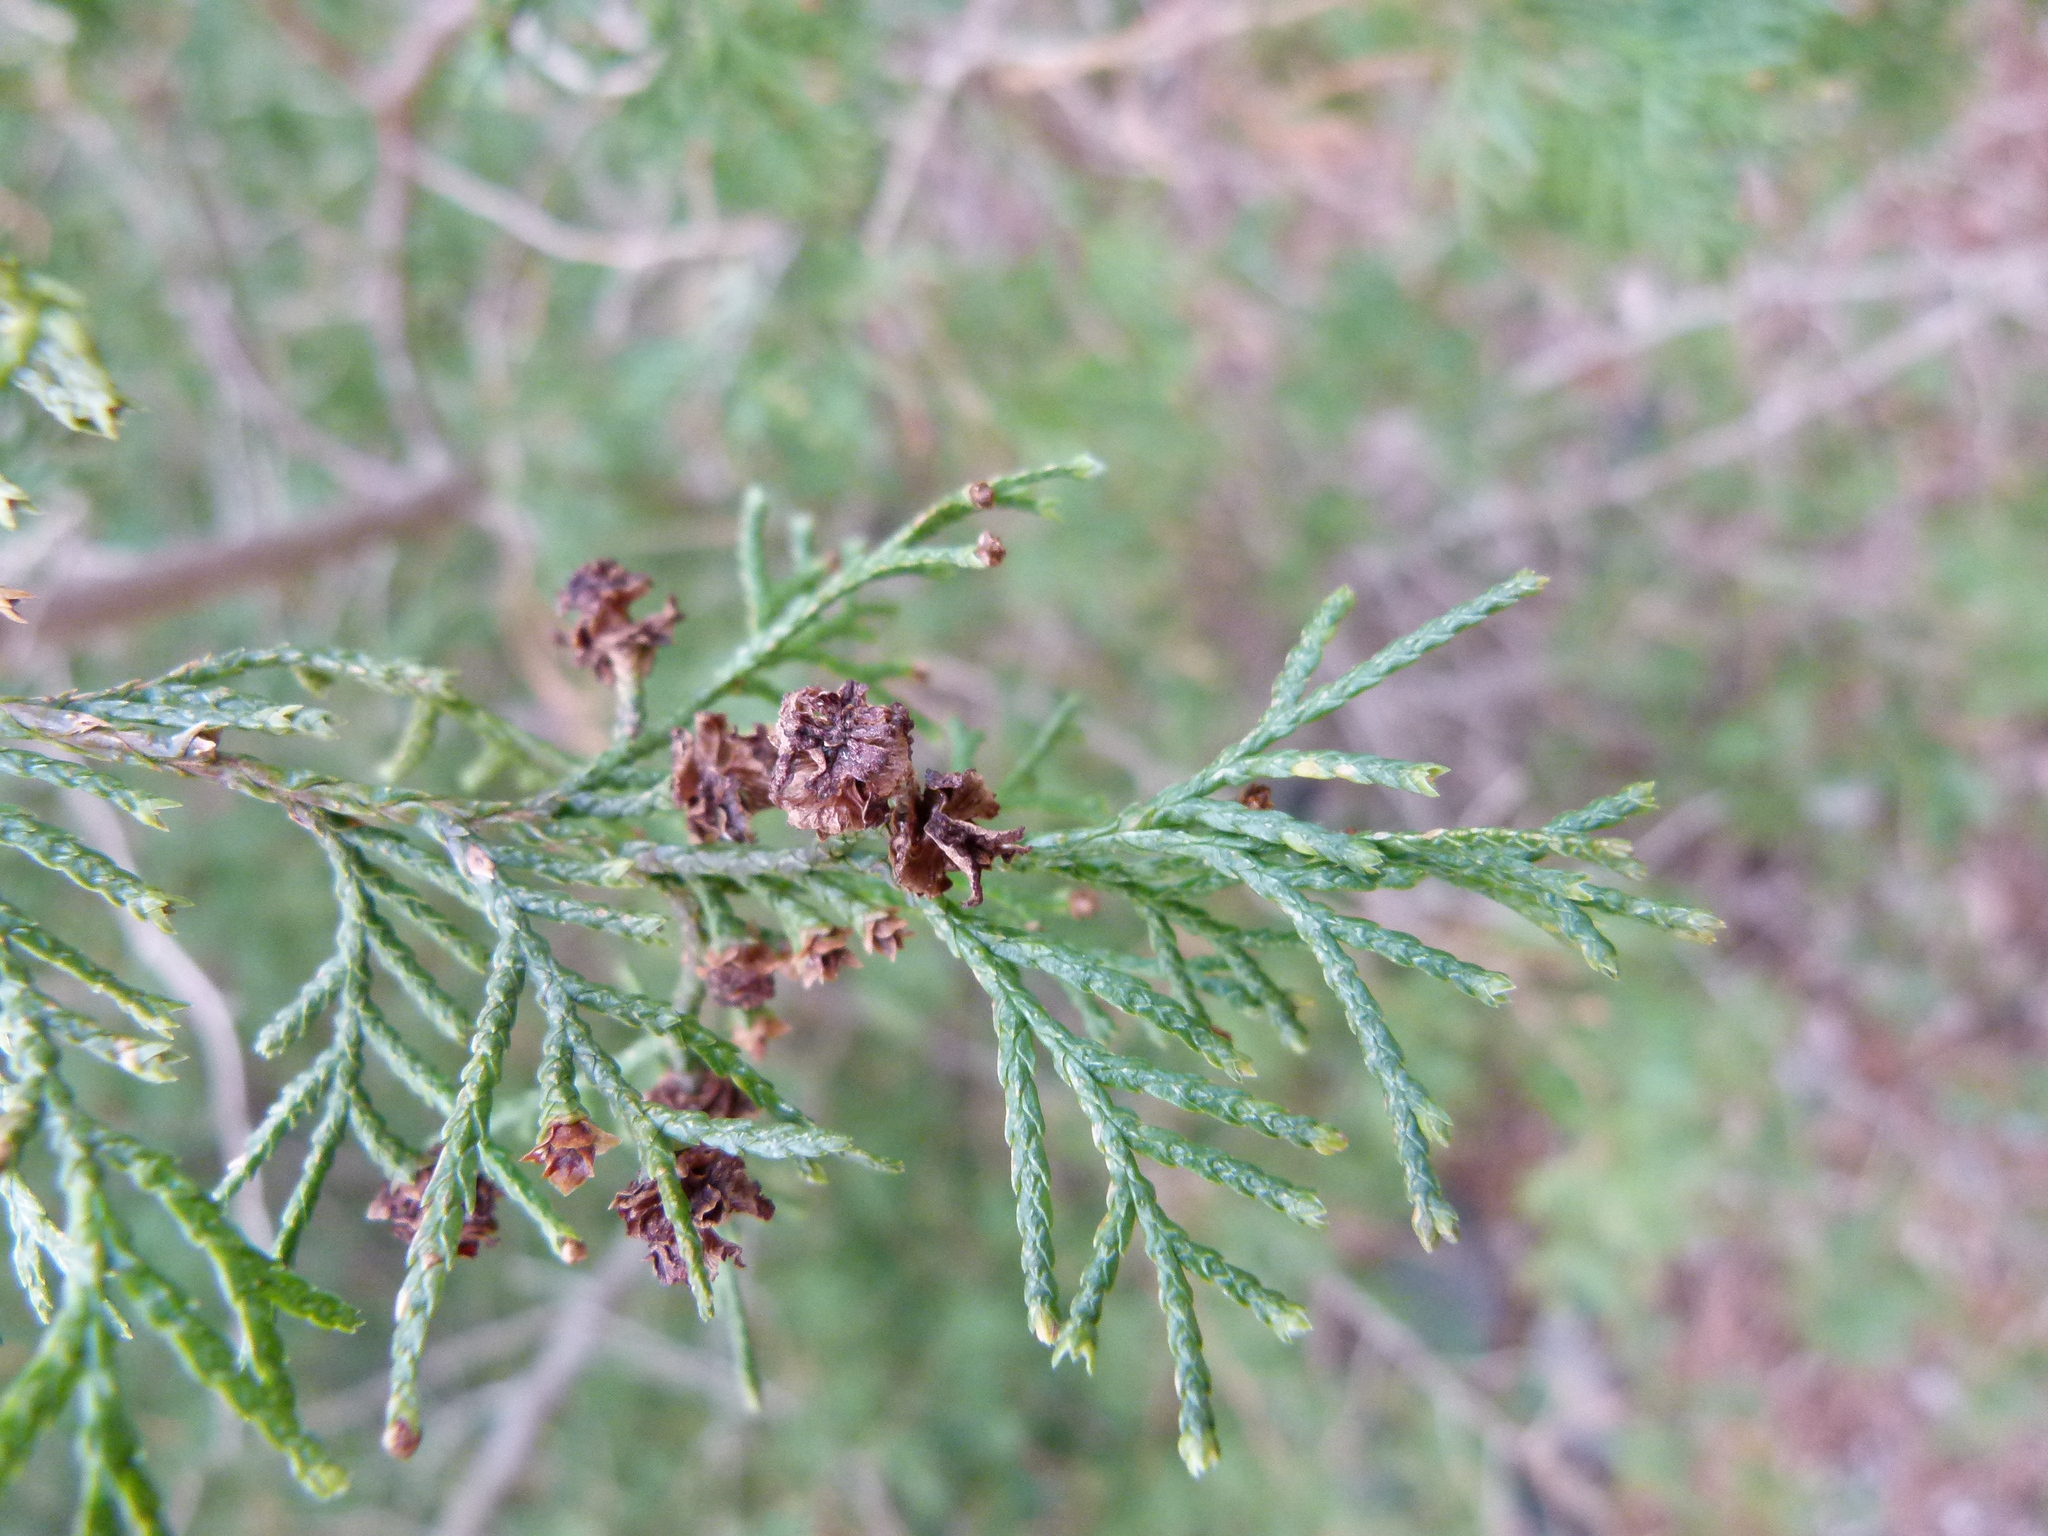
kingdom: Plantae
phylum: Tracheophyta
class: Pinopsida
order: Pinales
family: Cupressaceae
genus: Chamaecyparis
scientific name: Chamaecyparis thyoides
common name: Atlantic white cedar
